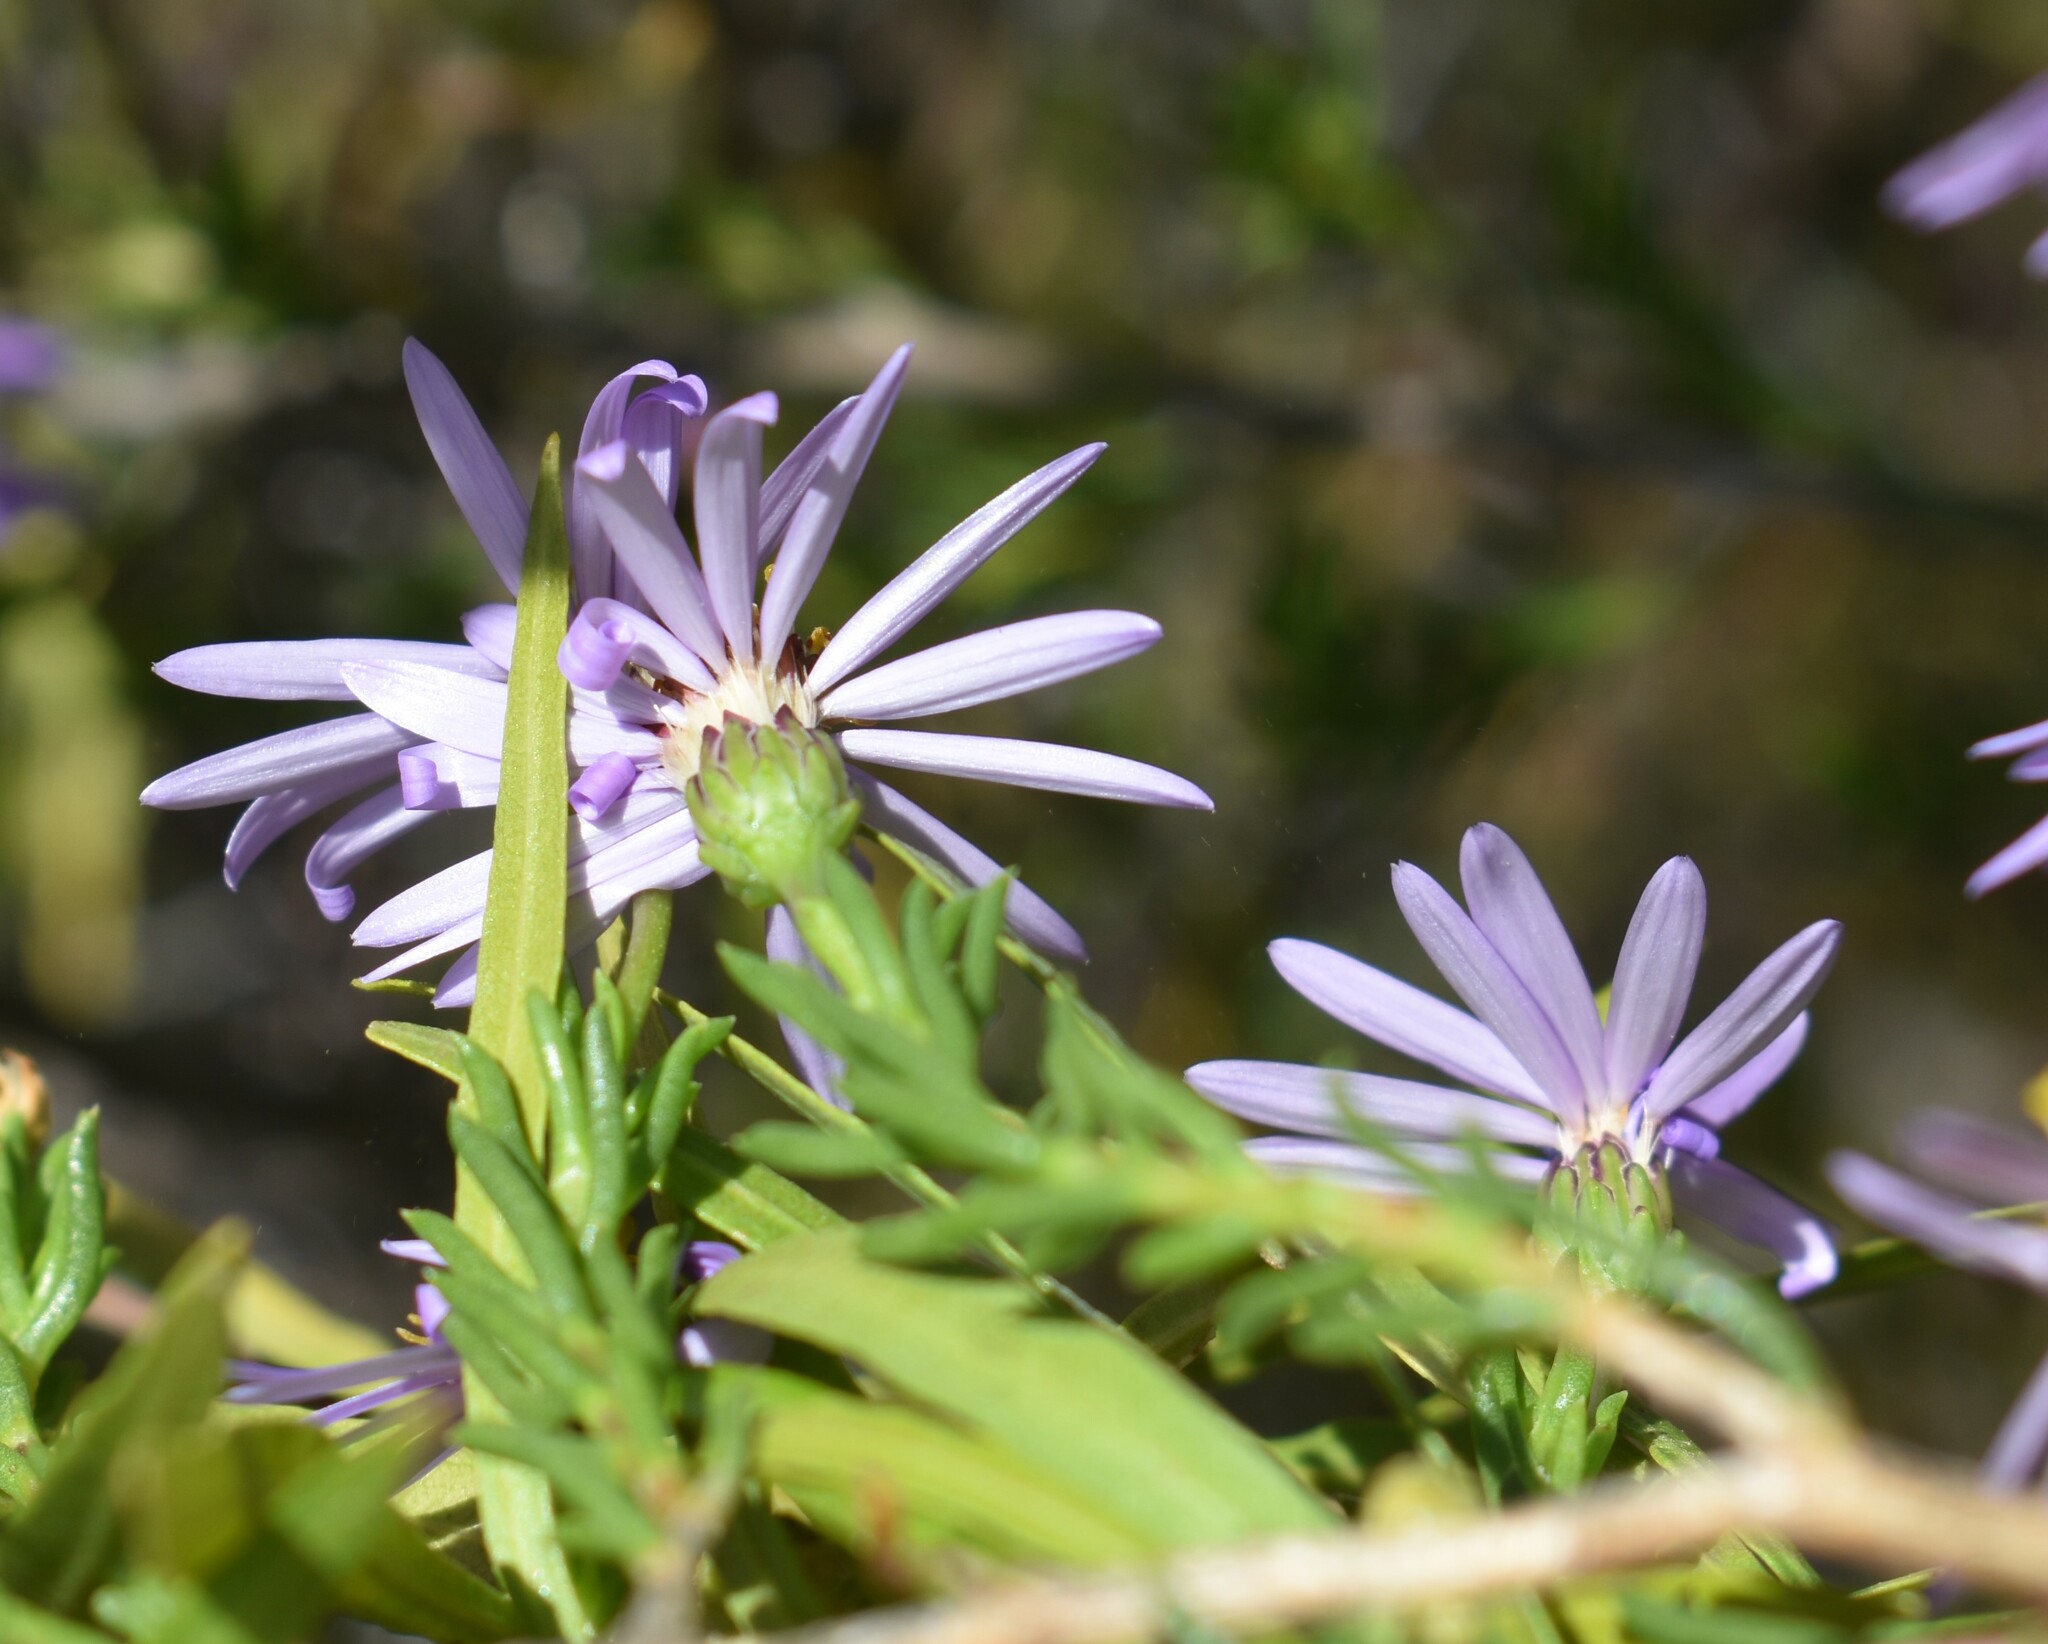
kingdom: Plantae
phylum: Tracheophyta
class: Magnoliopsida
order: Asterales
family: Asteraceae
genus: Felicia
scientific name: Felicia filifolia
